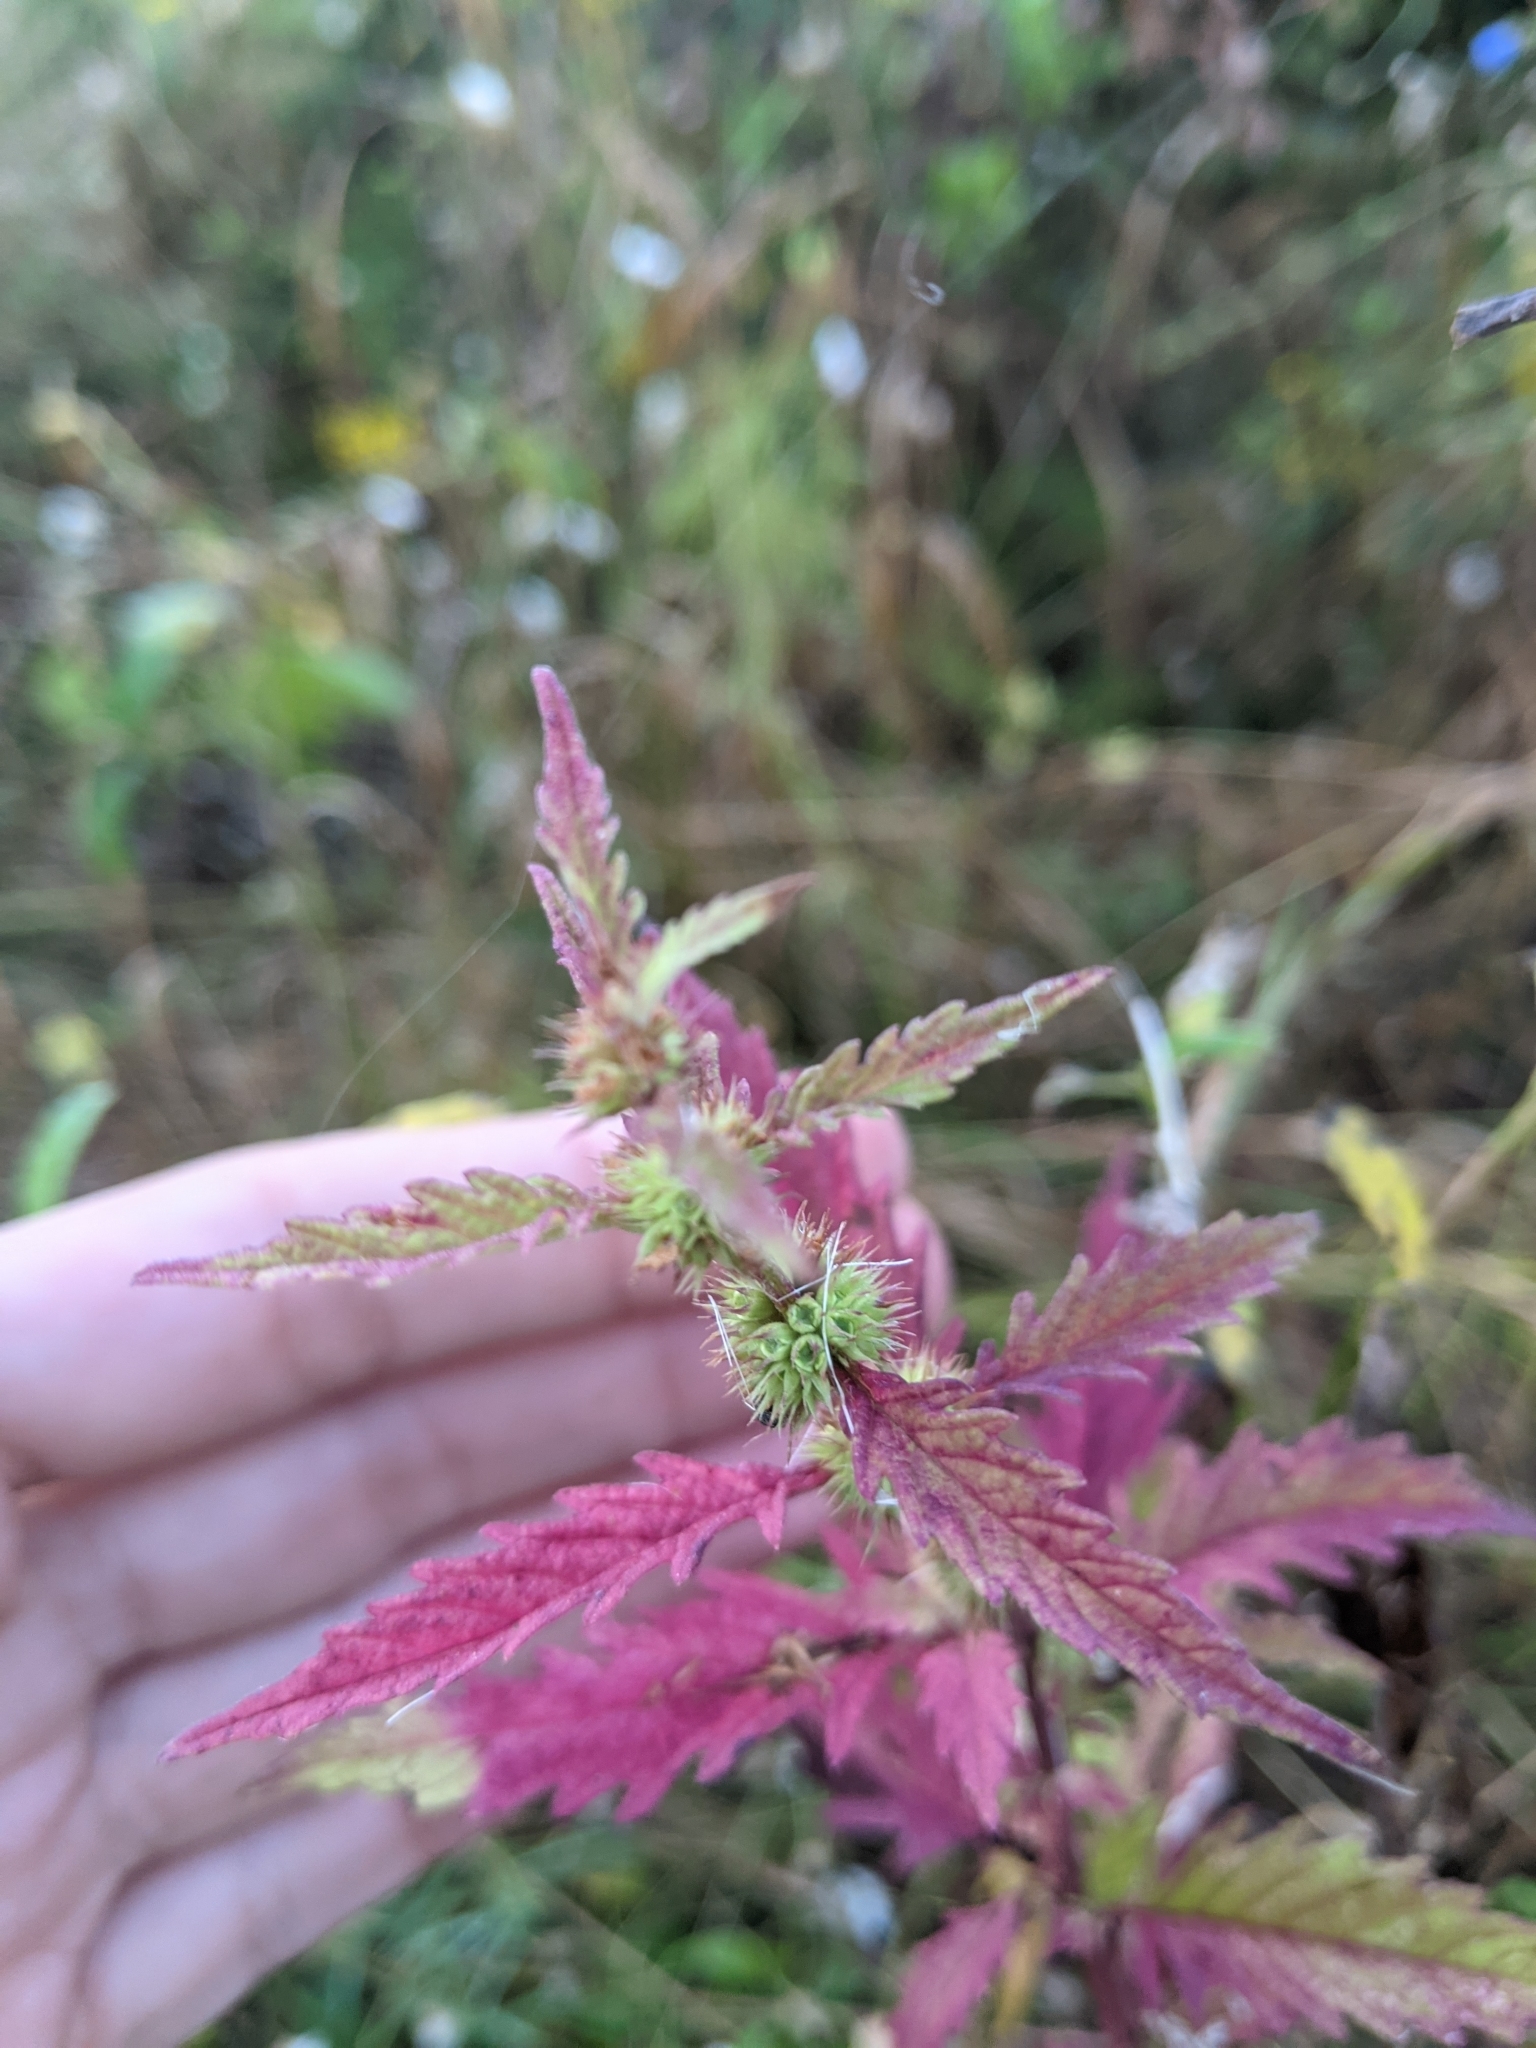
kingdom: Plantae
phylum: Tracheophyta
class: Magnoliopsida
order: Lamiales
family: Lamiaceae
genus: Lycopus
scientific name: Lycopus europaeus
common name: European bugleweed
